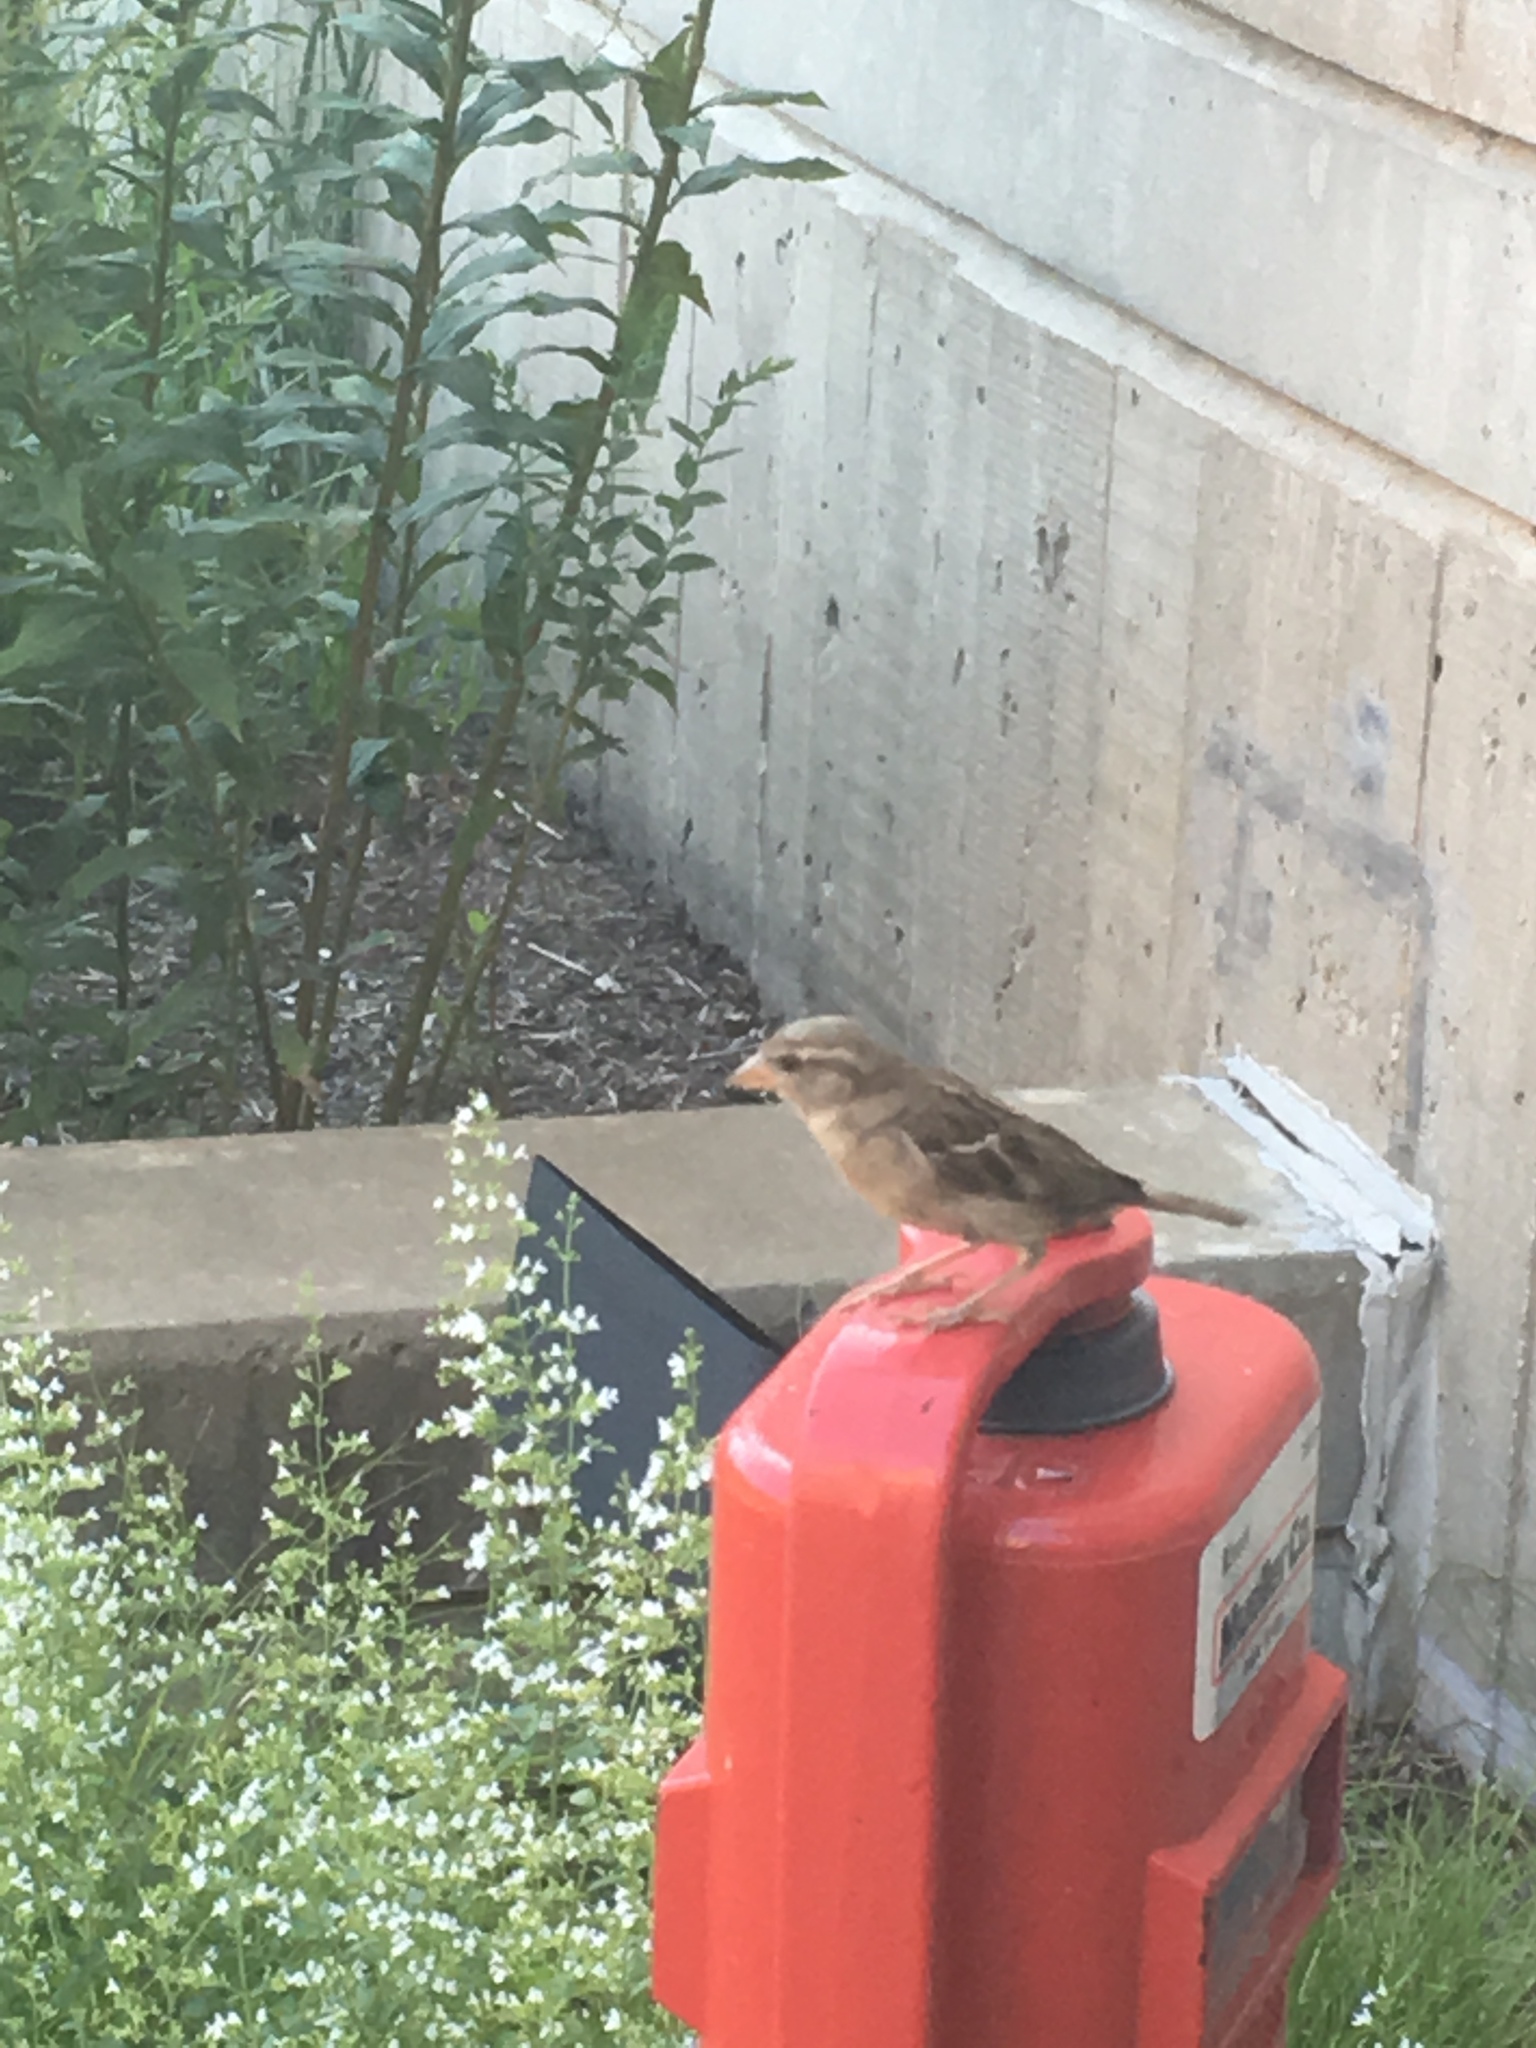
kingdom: Animalia
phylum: Chordata
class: Aves
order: Passeriformes
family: Passeridae
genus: Passer
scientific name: Passer domesticus
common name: House sparrow
